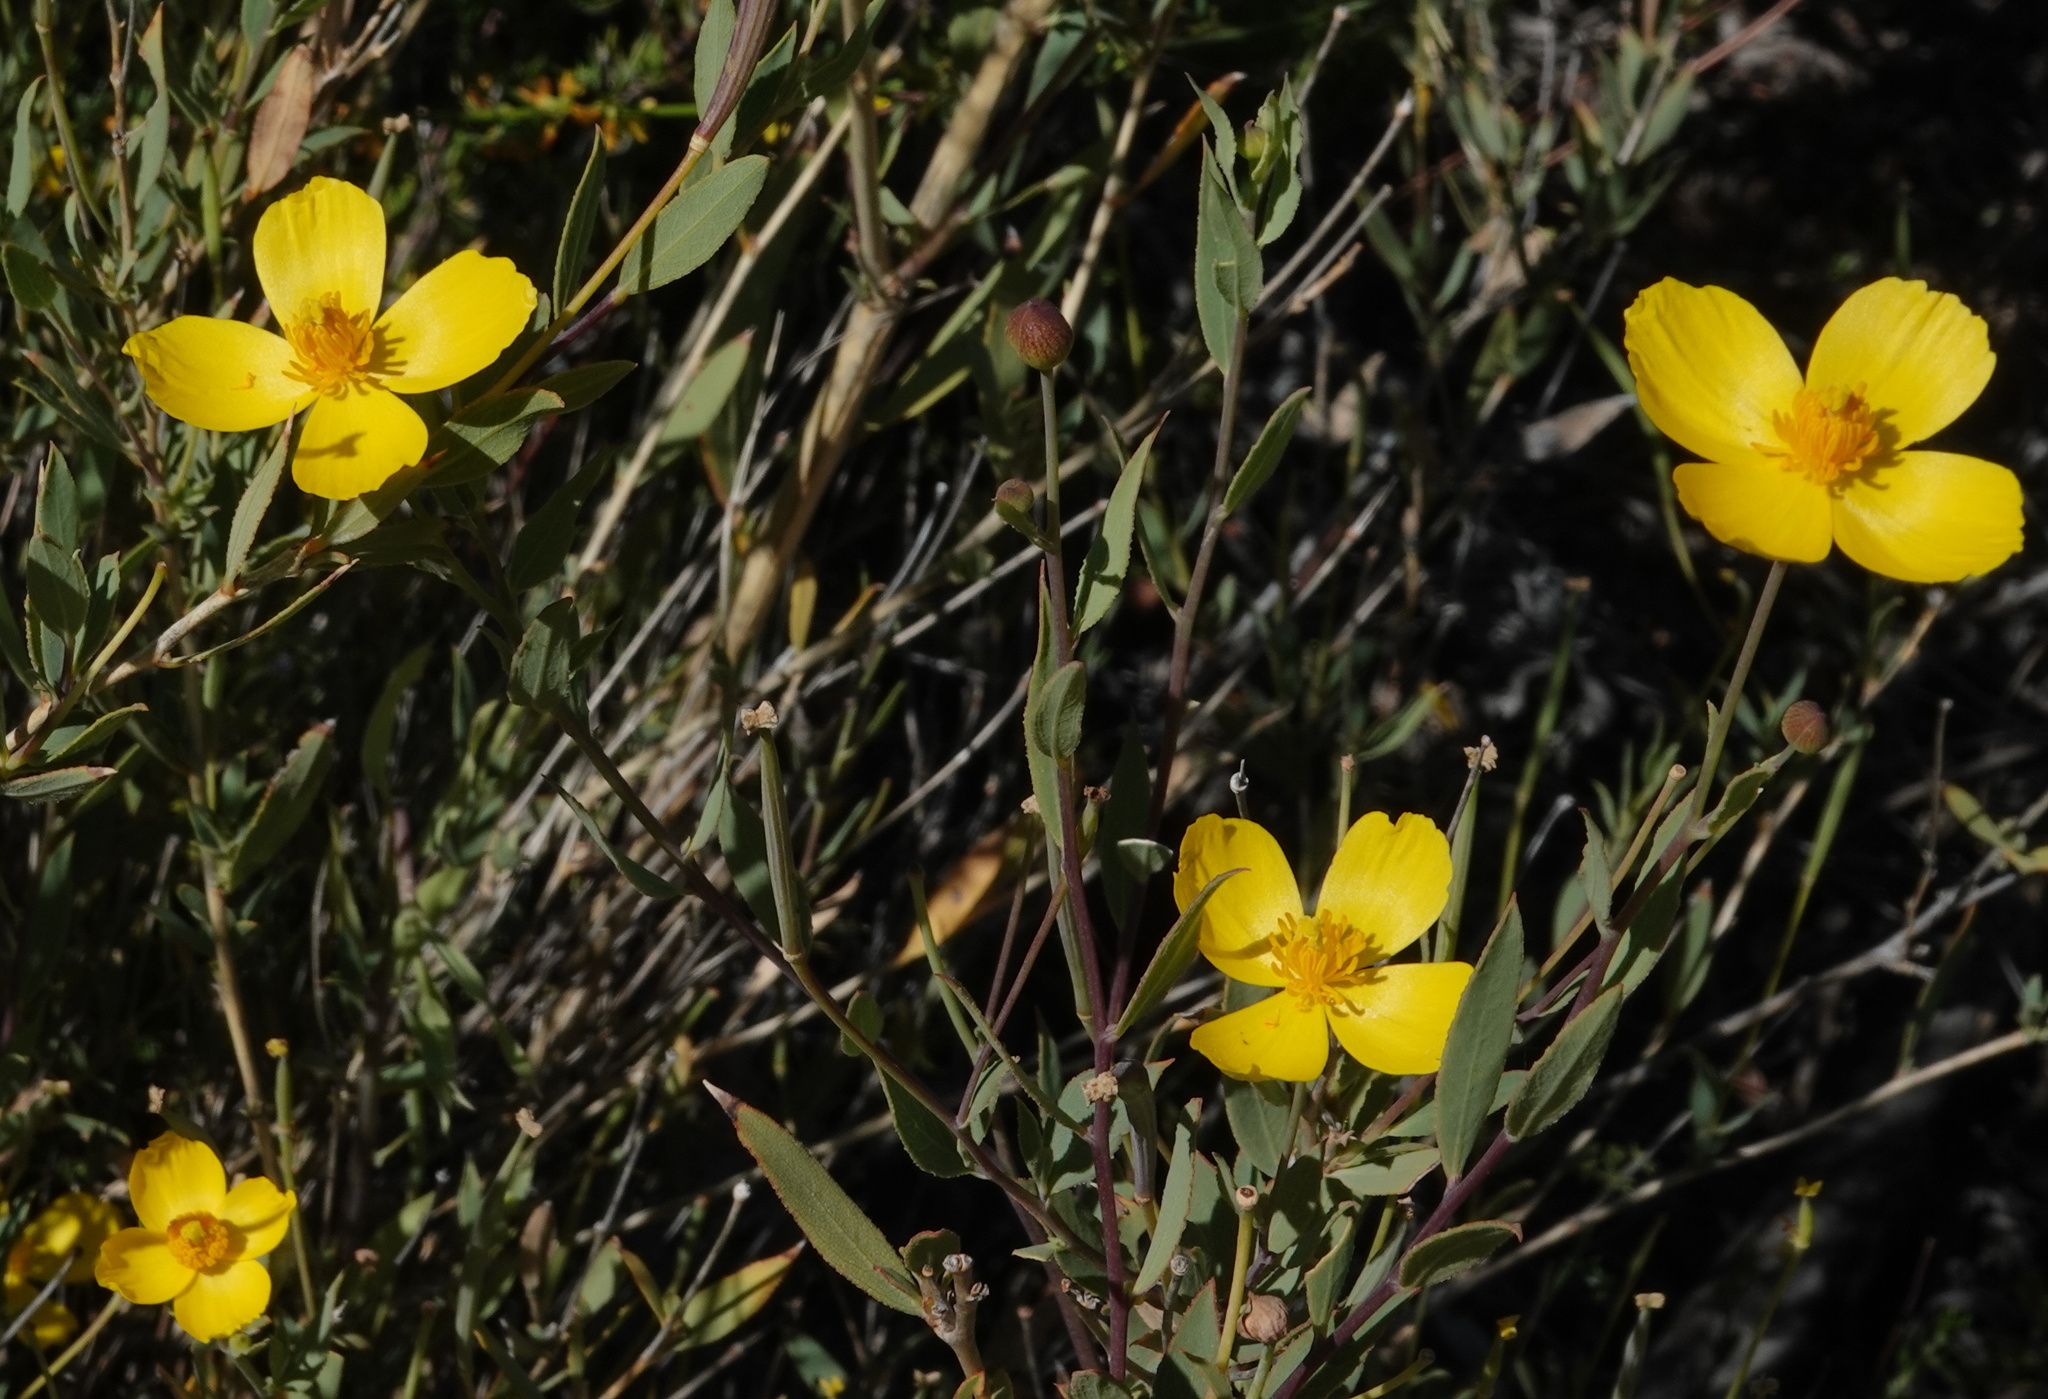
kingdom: Plantae
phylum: Tracheophyta
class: Magnoliopsida
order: Ranunculales
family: Papaveraceae
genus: Dendromecon
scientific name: Dendromecon rigida
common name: Tree poppy
